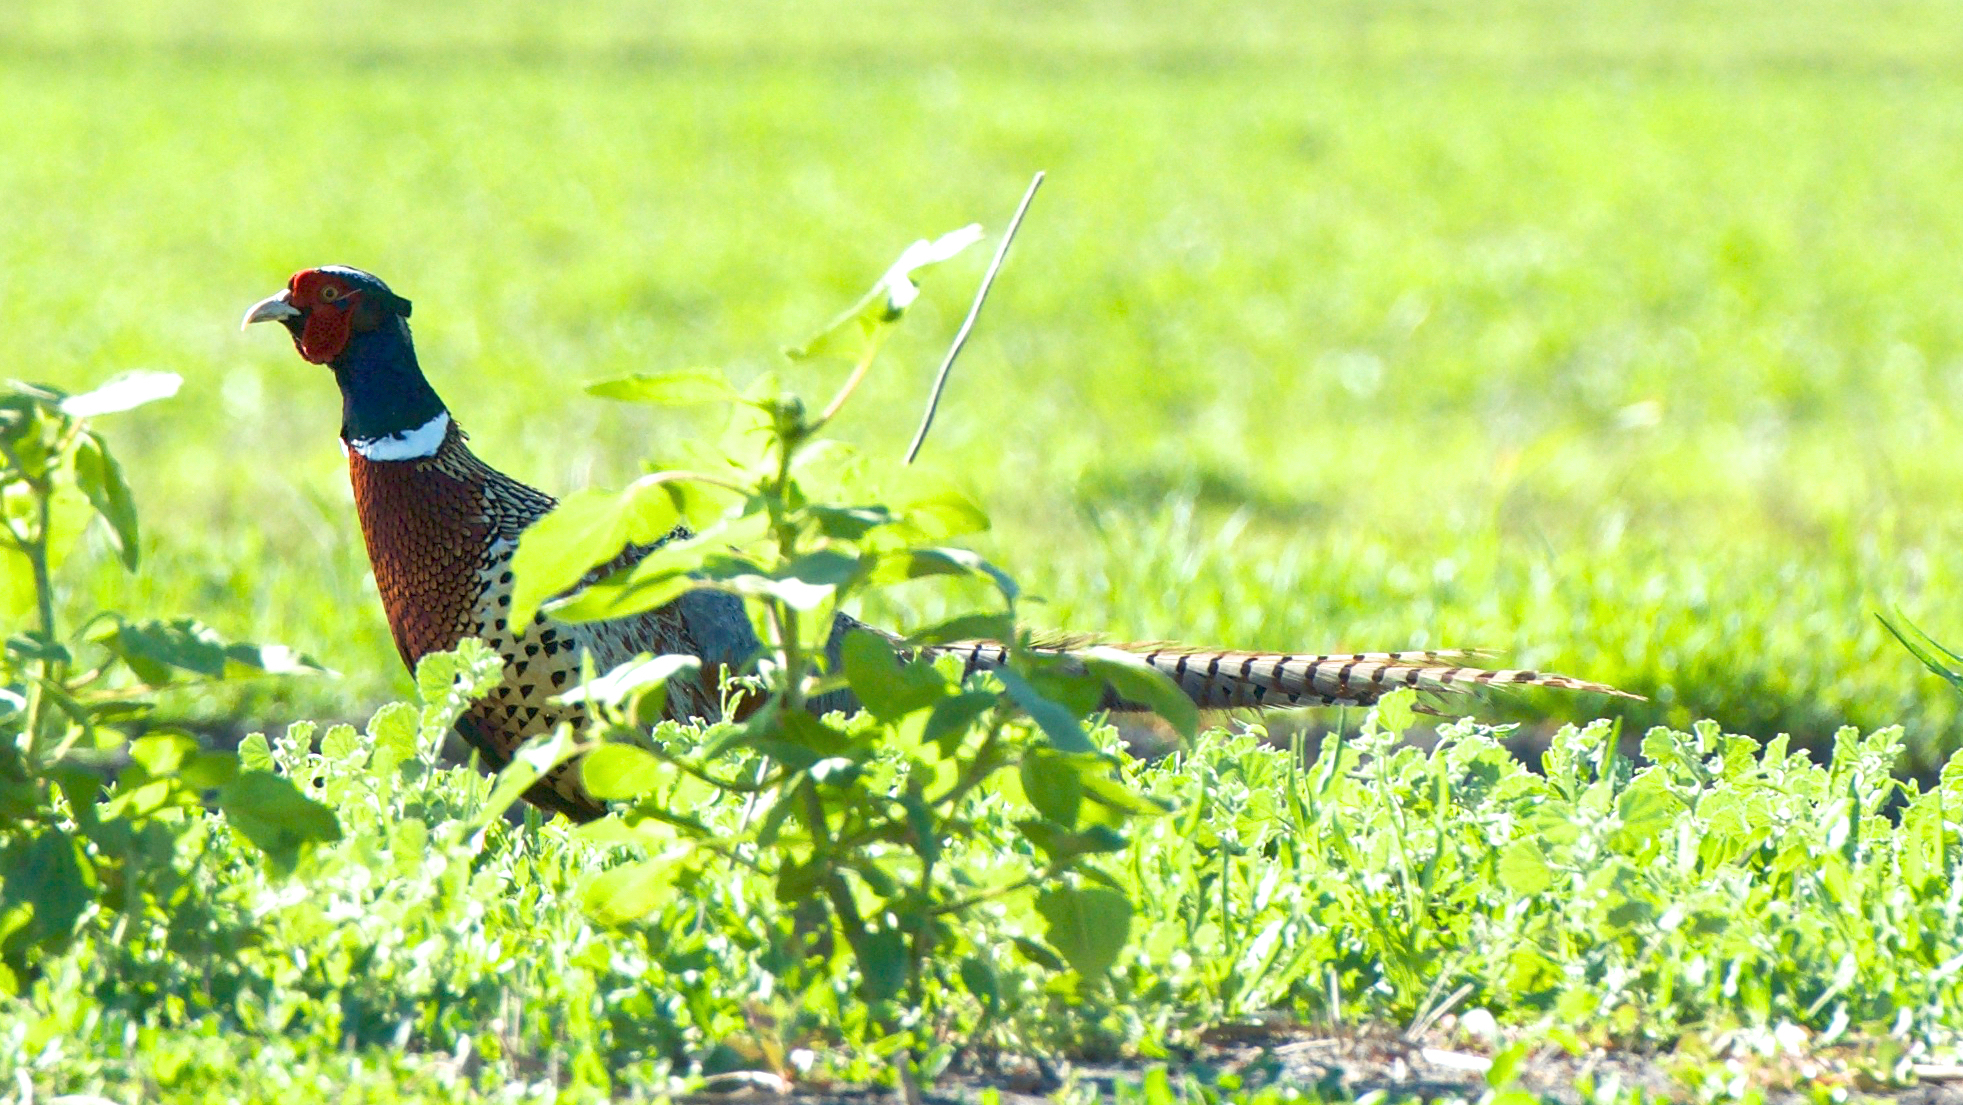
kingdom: Animalia
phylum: Chordata
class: Aves
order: Galliformes
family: Phasianidae
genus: Phasianus
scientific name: Phasianus colchicus
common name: Common pheasant
